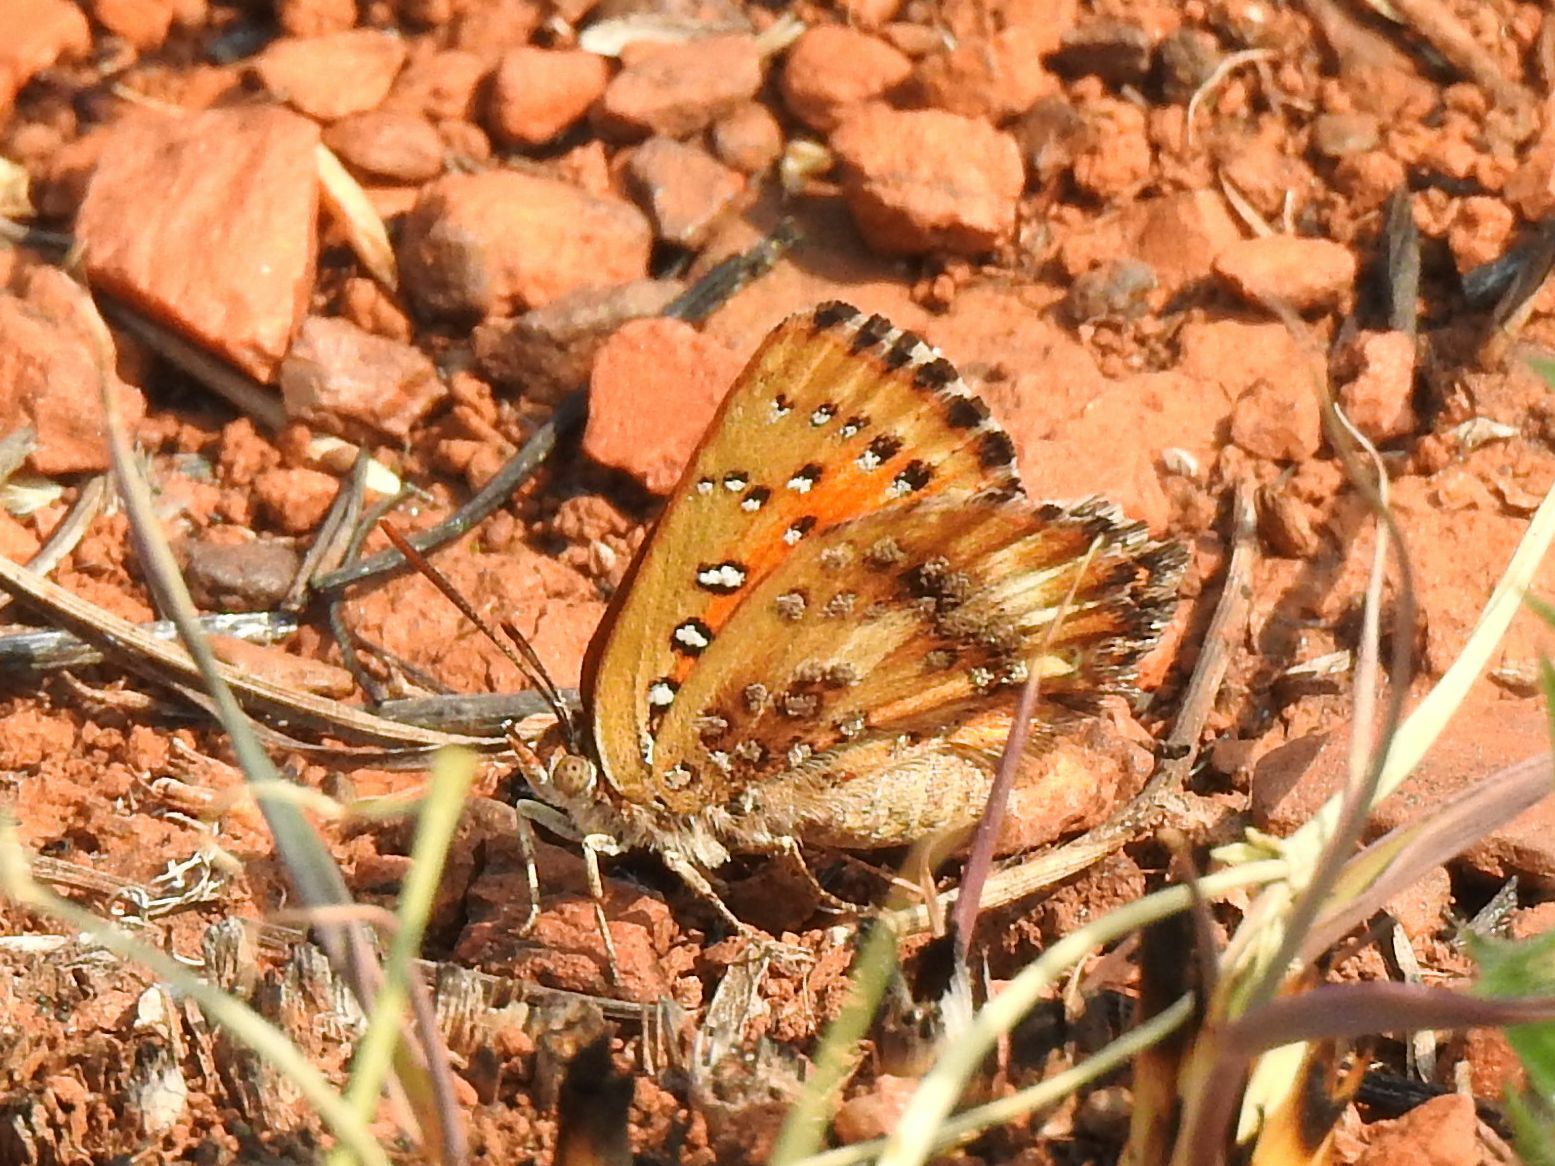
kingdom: Animalia
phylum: Arthropoda
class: Insecta
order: Lepidoptera
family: Lycaenidae
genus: Aloeides
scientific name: Aloeides molomo
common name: Mottled russet
